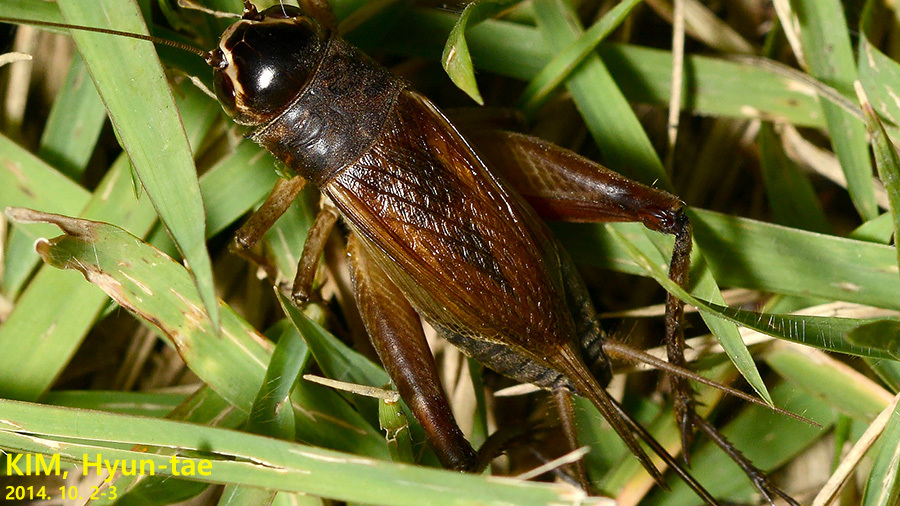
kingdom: Animalia
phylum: Arthropoda
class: Insecta
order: Orthoptera
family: Gryllidae
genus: Teleogryllus
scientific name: Teleogryllus emma
